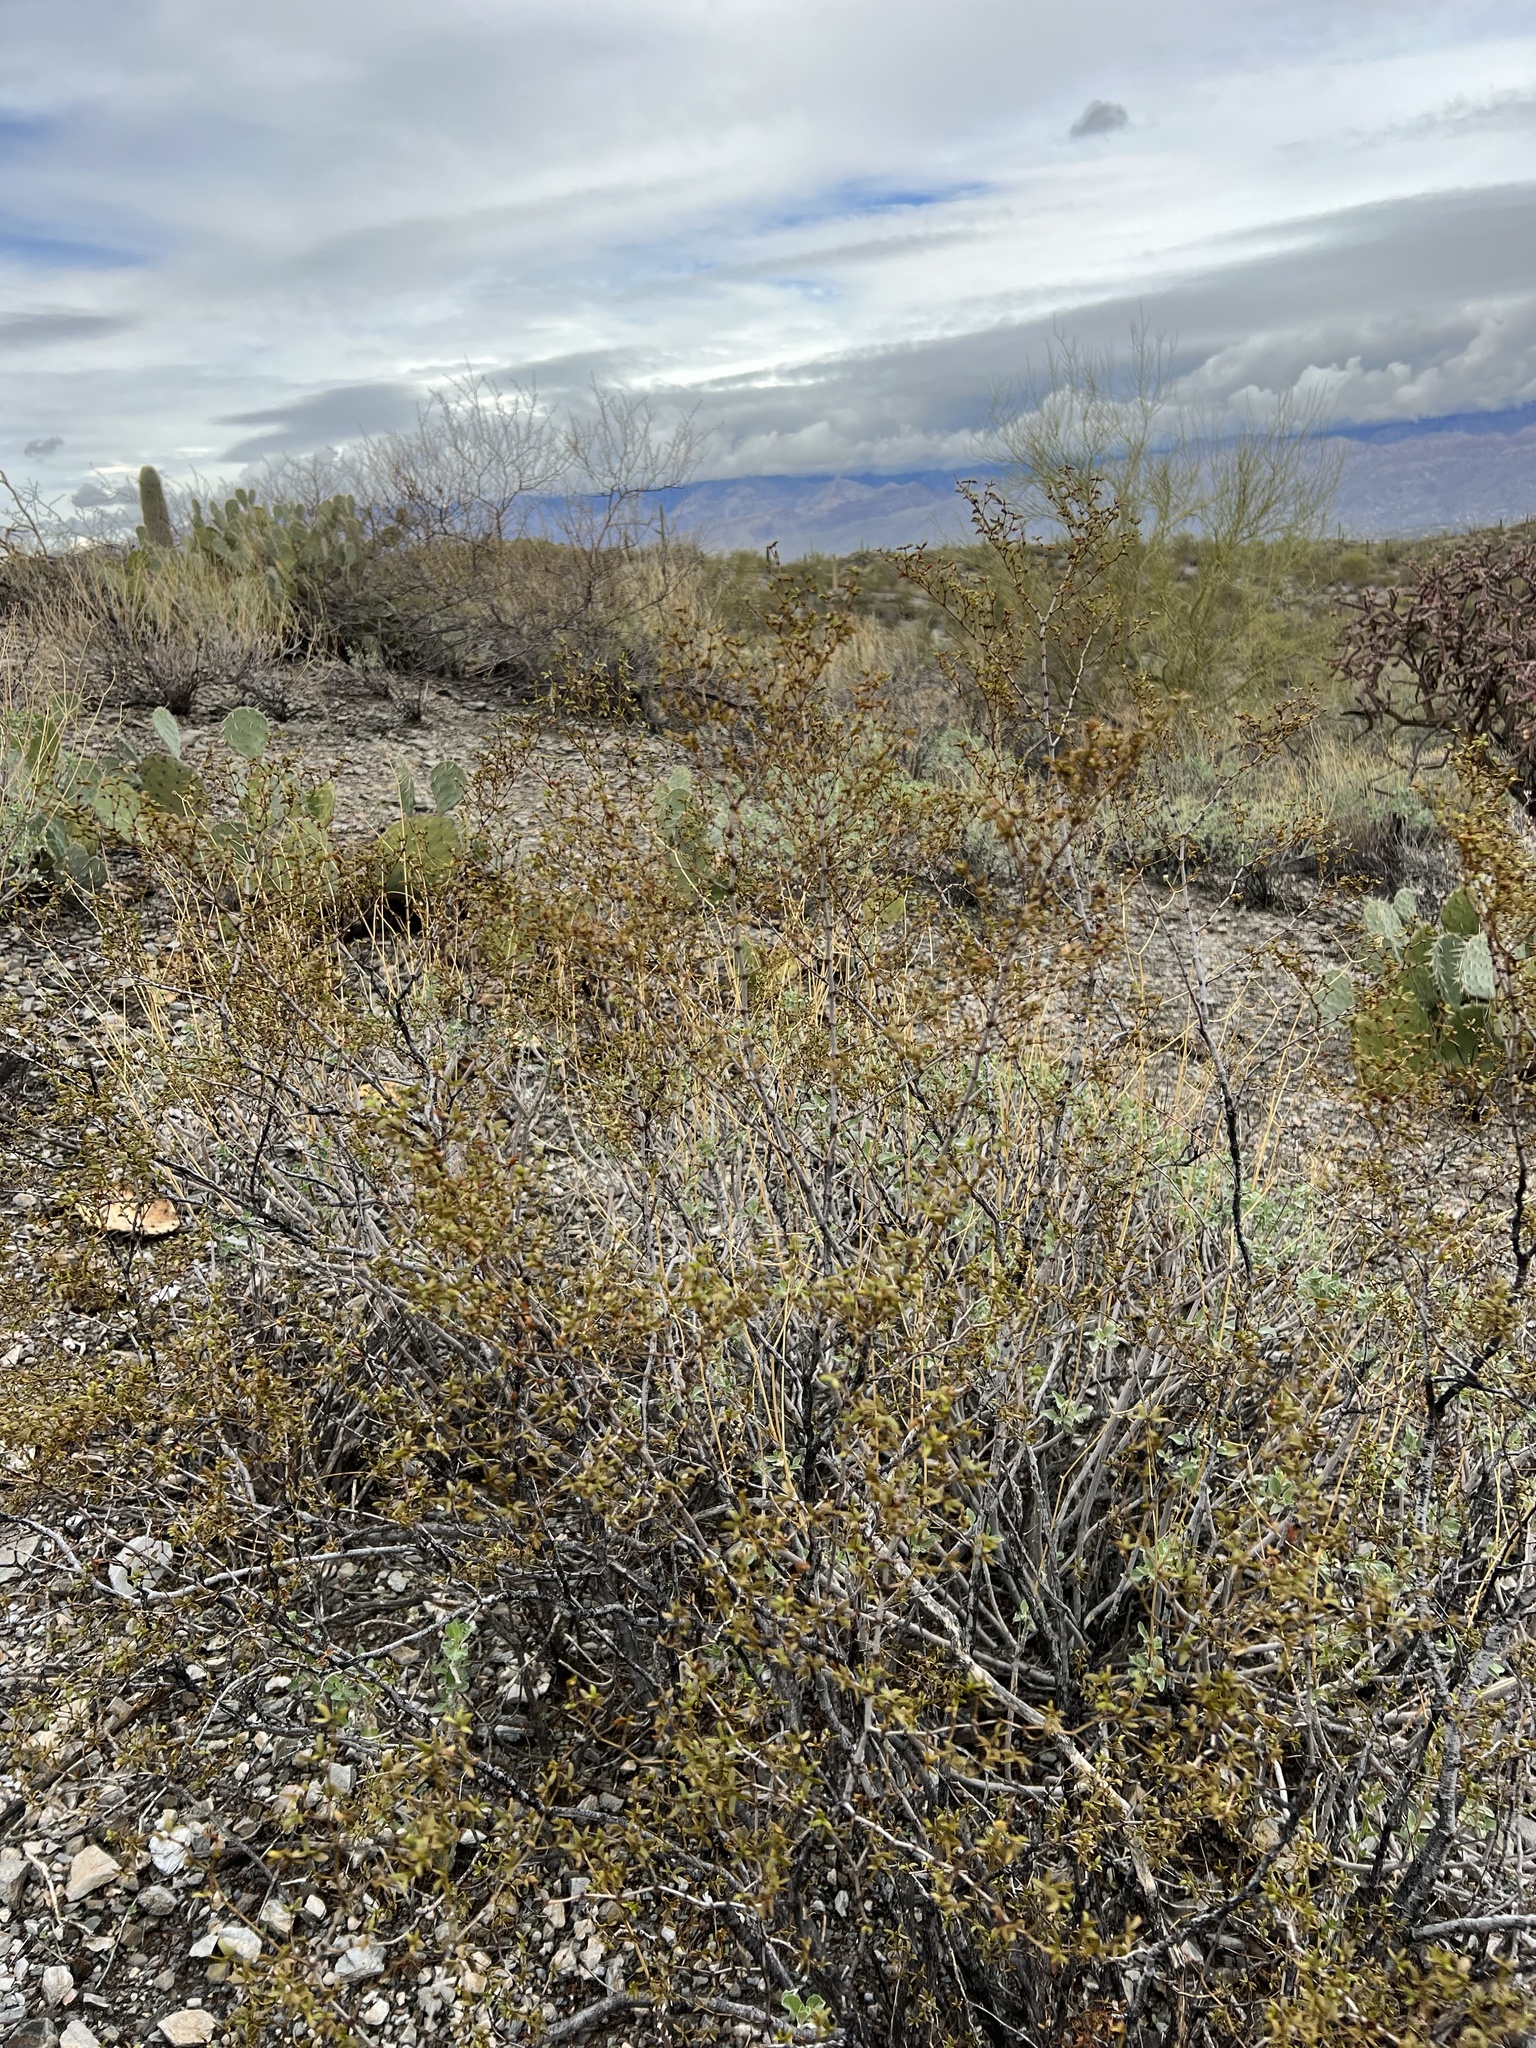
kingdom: Plantae
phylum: Tracheophyta
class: Magnoliopsida
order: Zygophyllales
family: Zygophyllaceae
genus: Larrea
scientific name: Larrea tridentata
